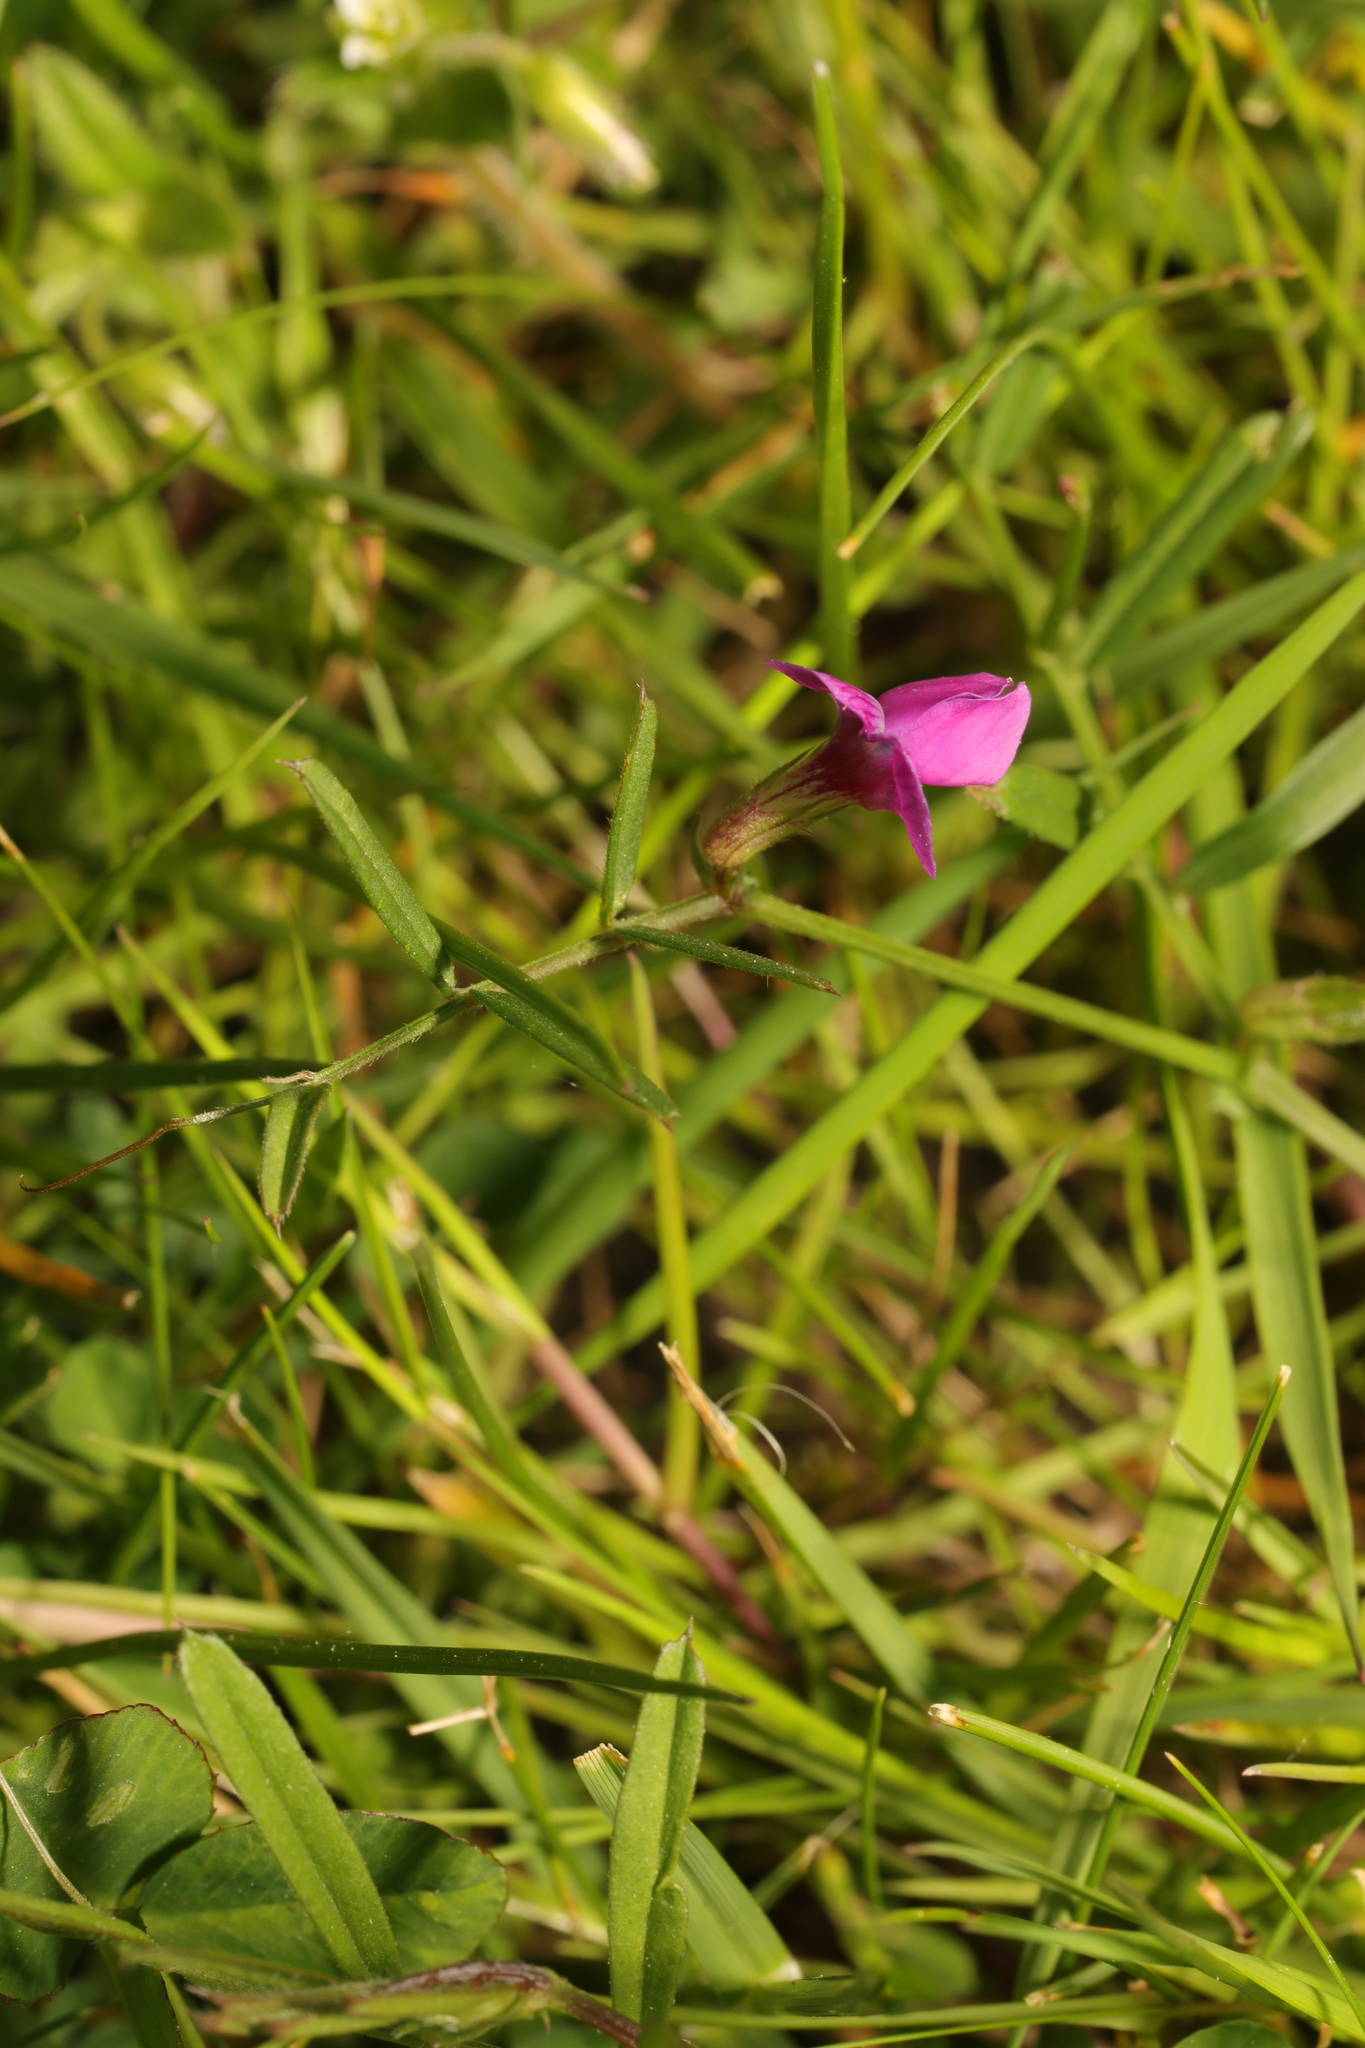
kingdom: Plantae
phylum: Tracheophyta
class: Magnoliopsida
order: Fabales
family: Fabaceae
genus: Vicia
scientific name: Vicia sativa
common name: Garden vetch
